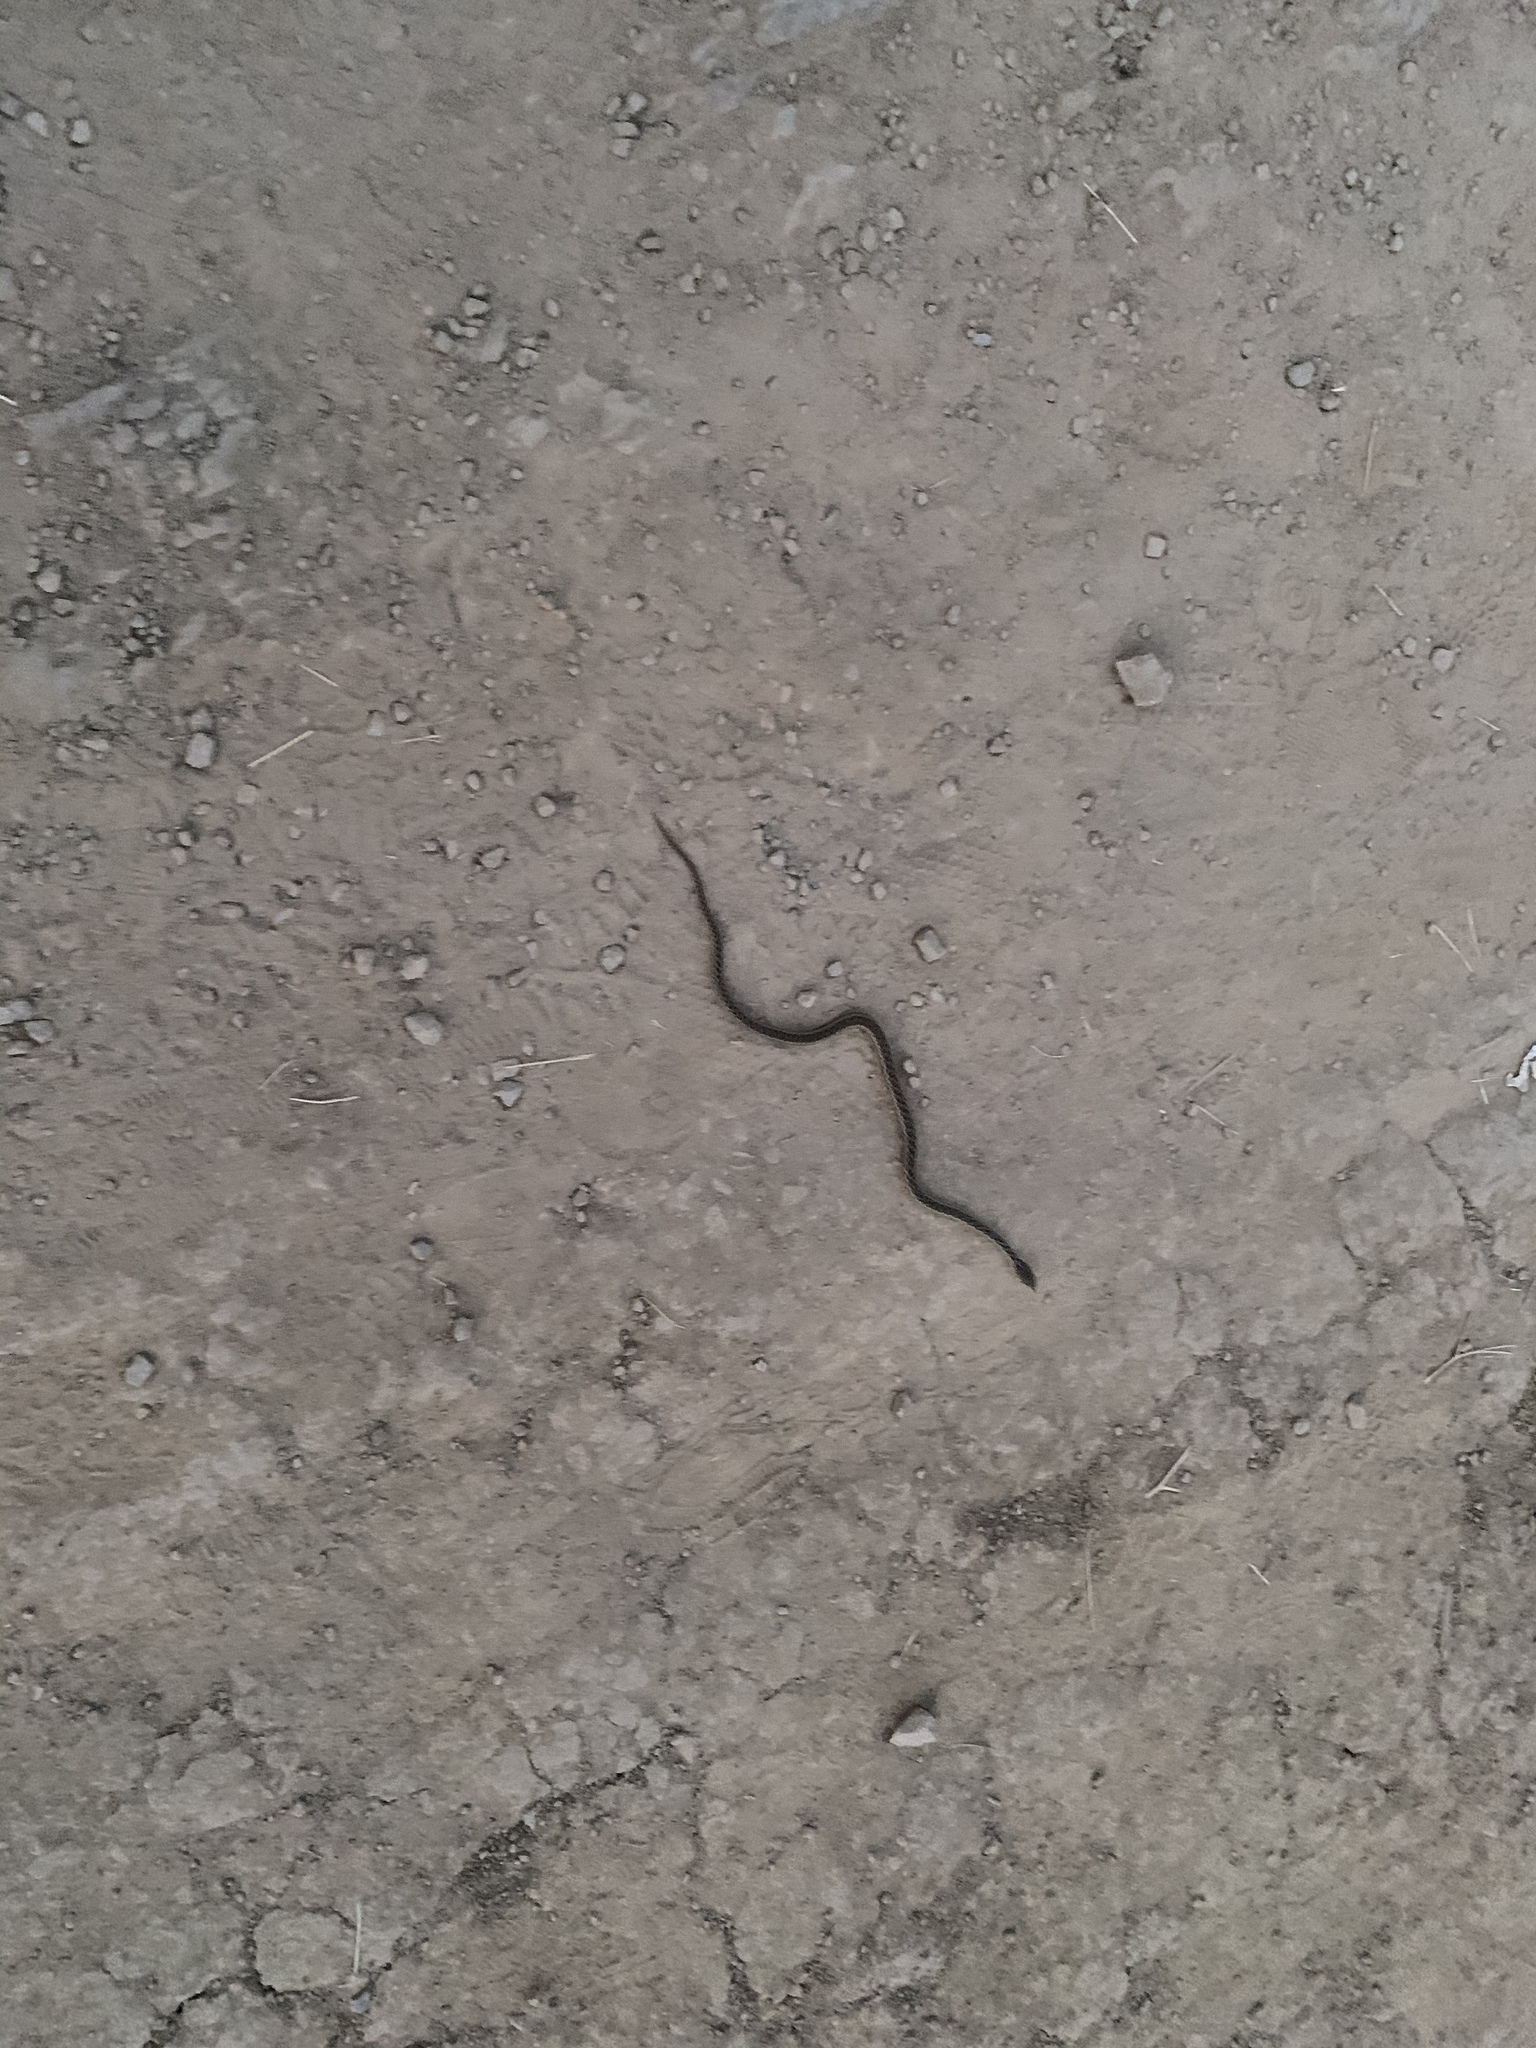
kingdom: Animalia
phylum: Chordata
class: Squamata
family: Colubridae
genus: Pituophis
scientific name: Pituophis catenifer
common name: Gopher snake
